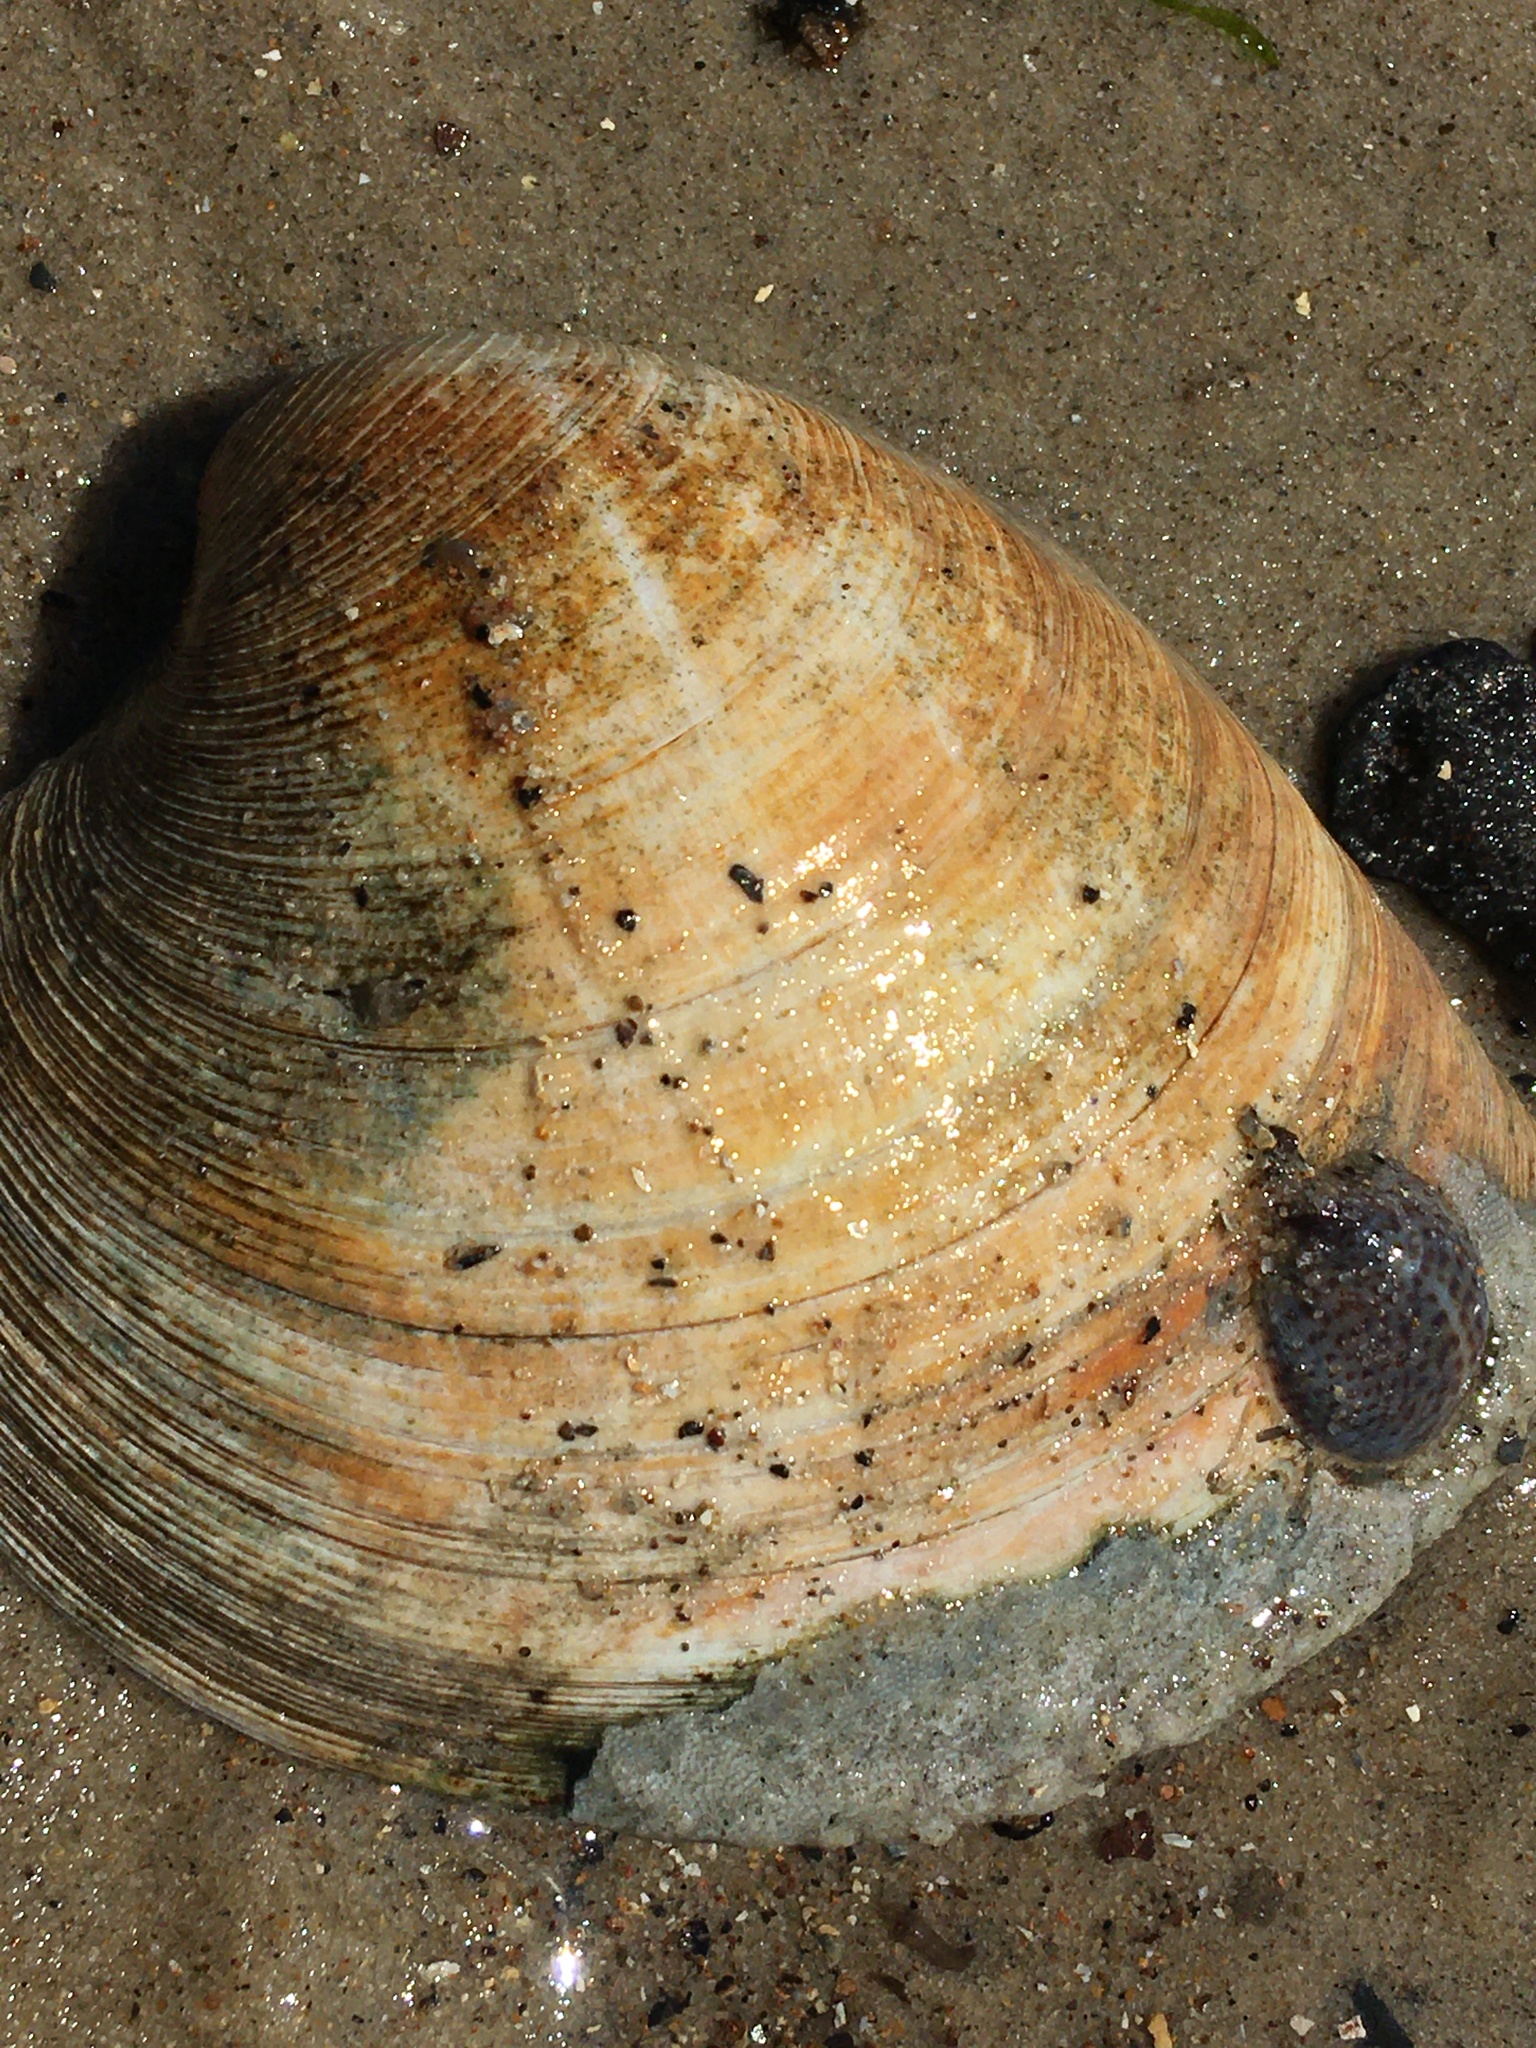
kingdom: Animalia
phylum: Mollusca
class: Bivalvia
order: Venerida
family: Veneridae
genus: Mercenaria
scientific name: Mercenaria mercenaria
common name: American hard-shelled clam
